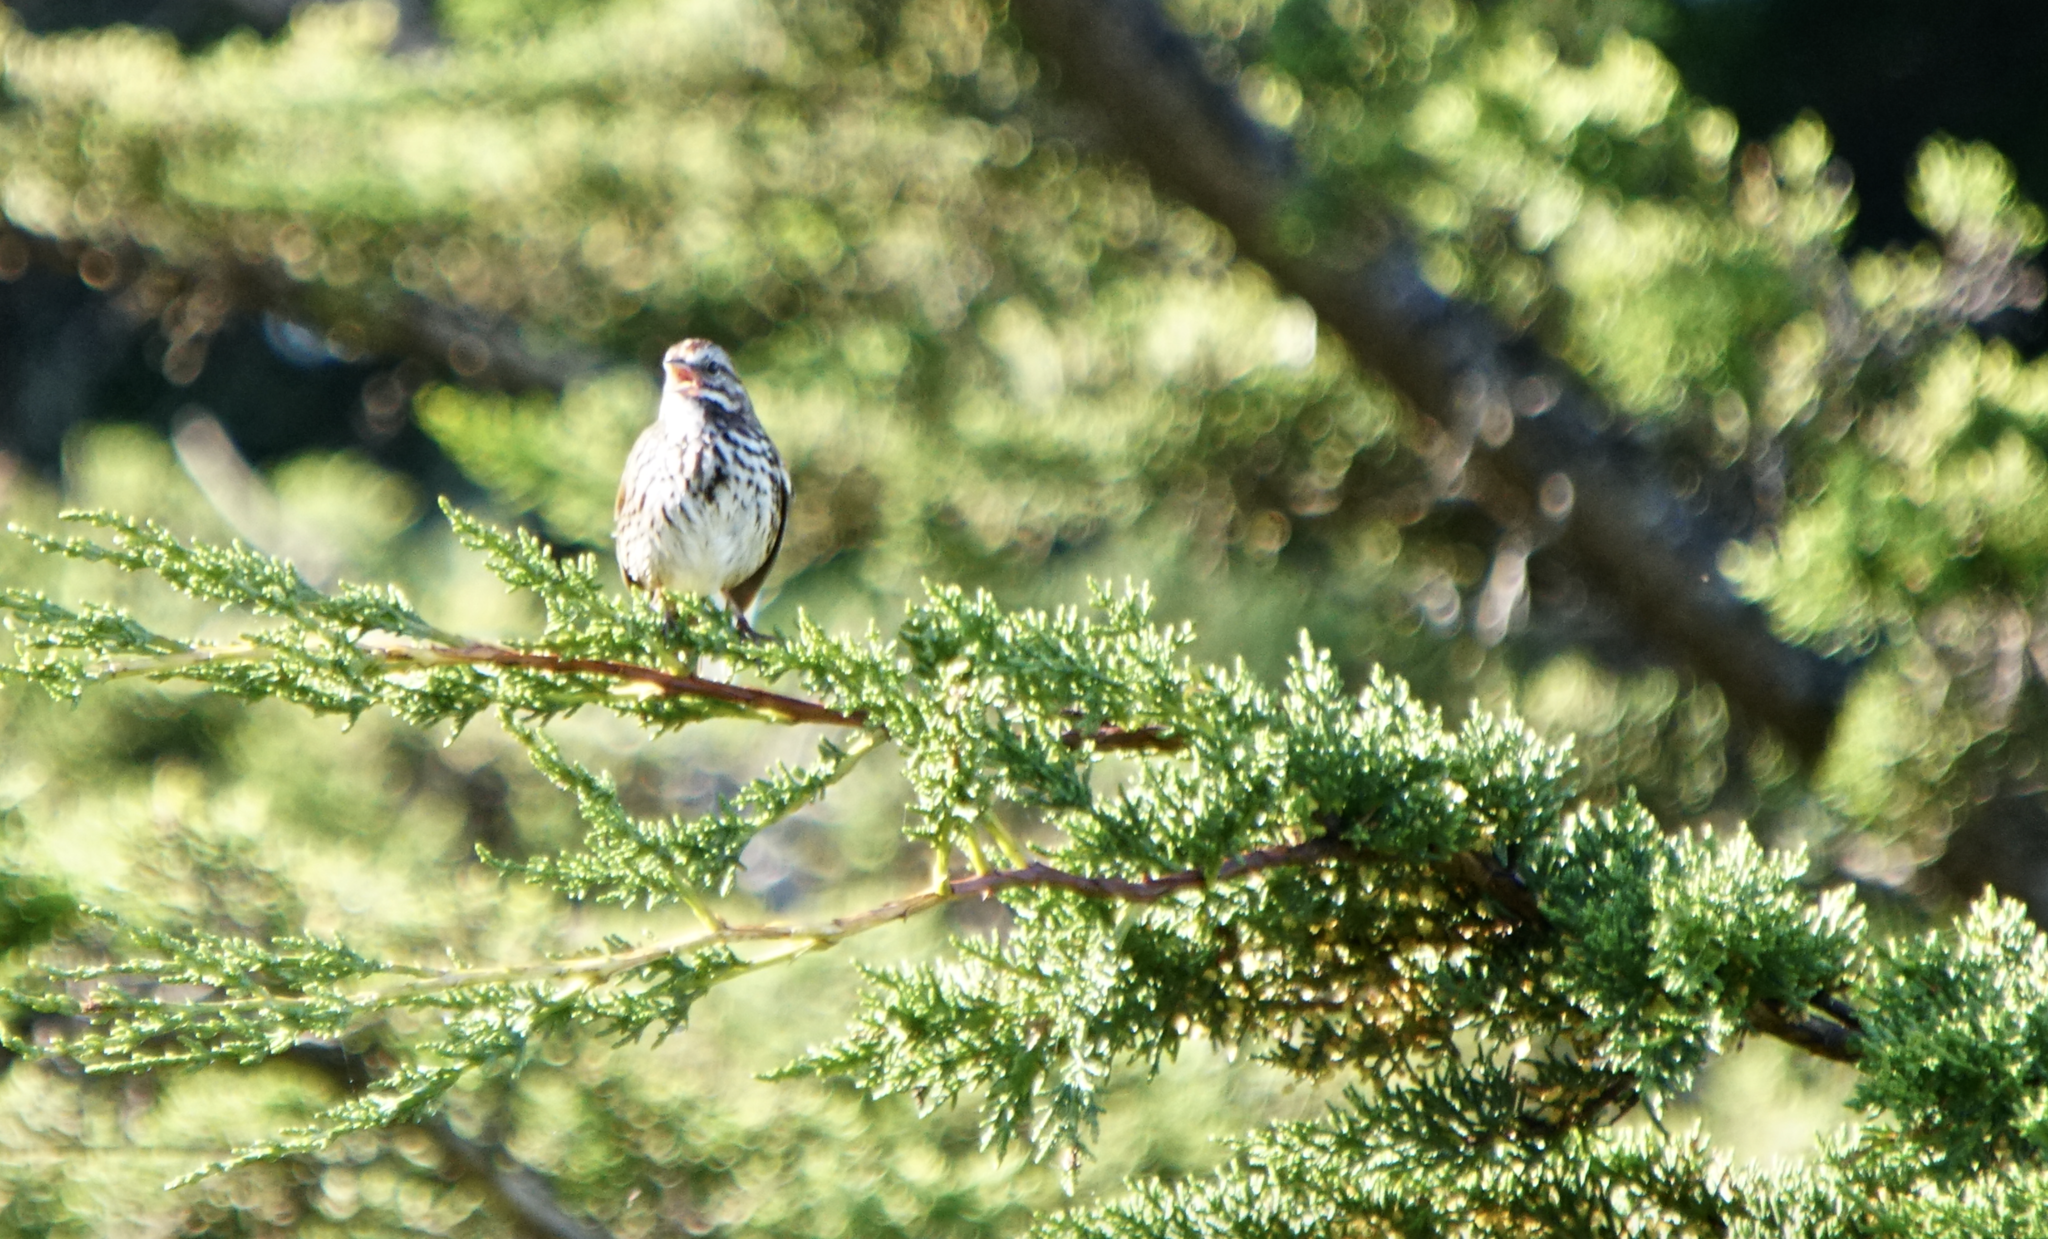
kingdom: Animalia
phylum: Chordata
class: Aves
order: Passeriformes
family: Passerellidae
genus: Melospiza
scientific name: Melospiza melodia
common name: Song sparrow
